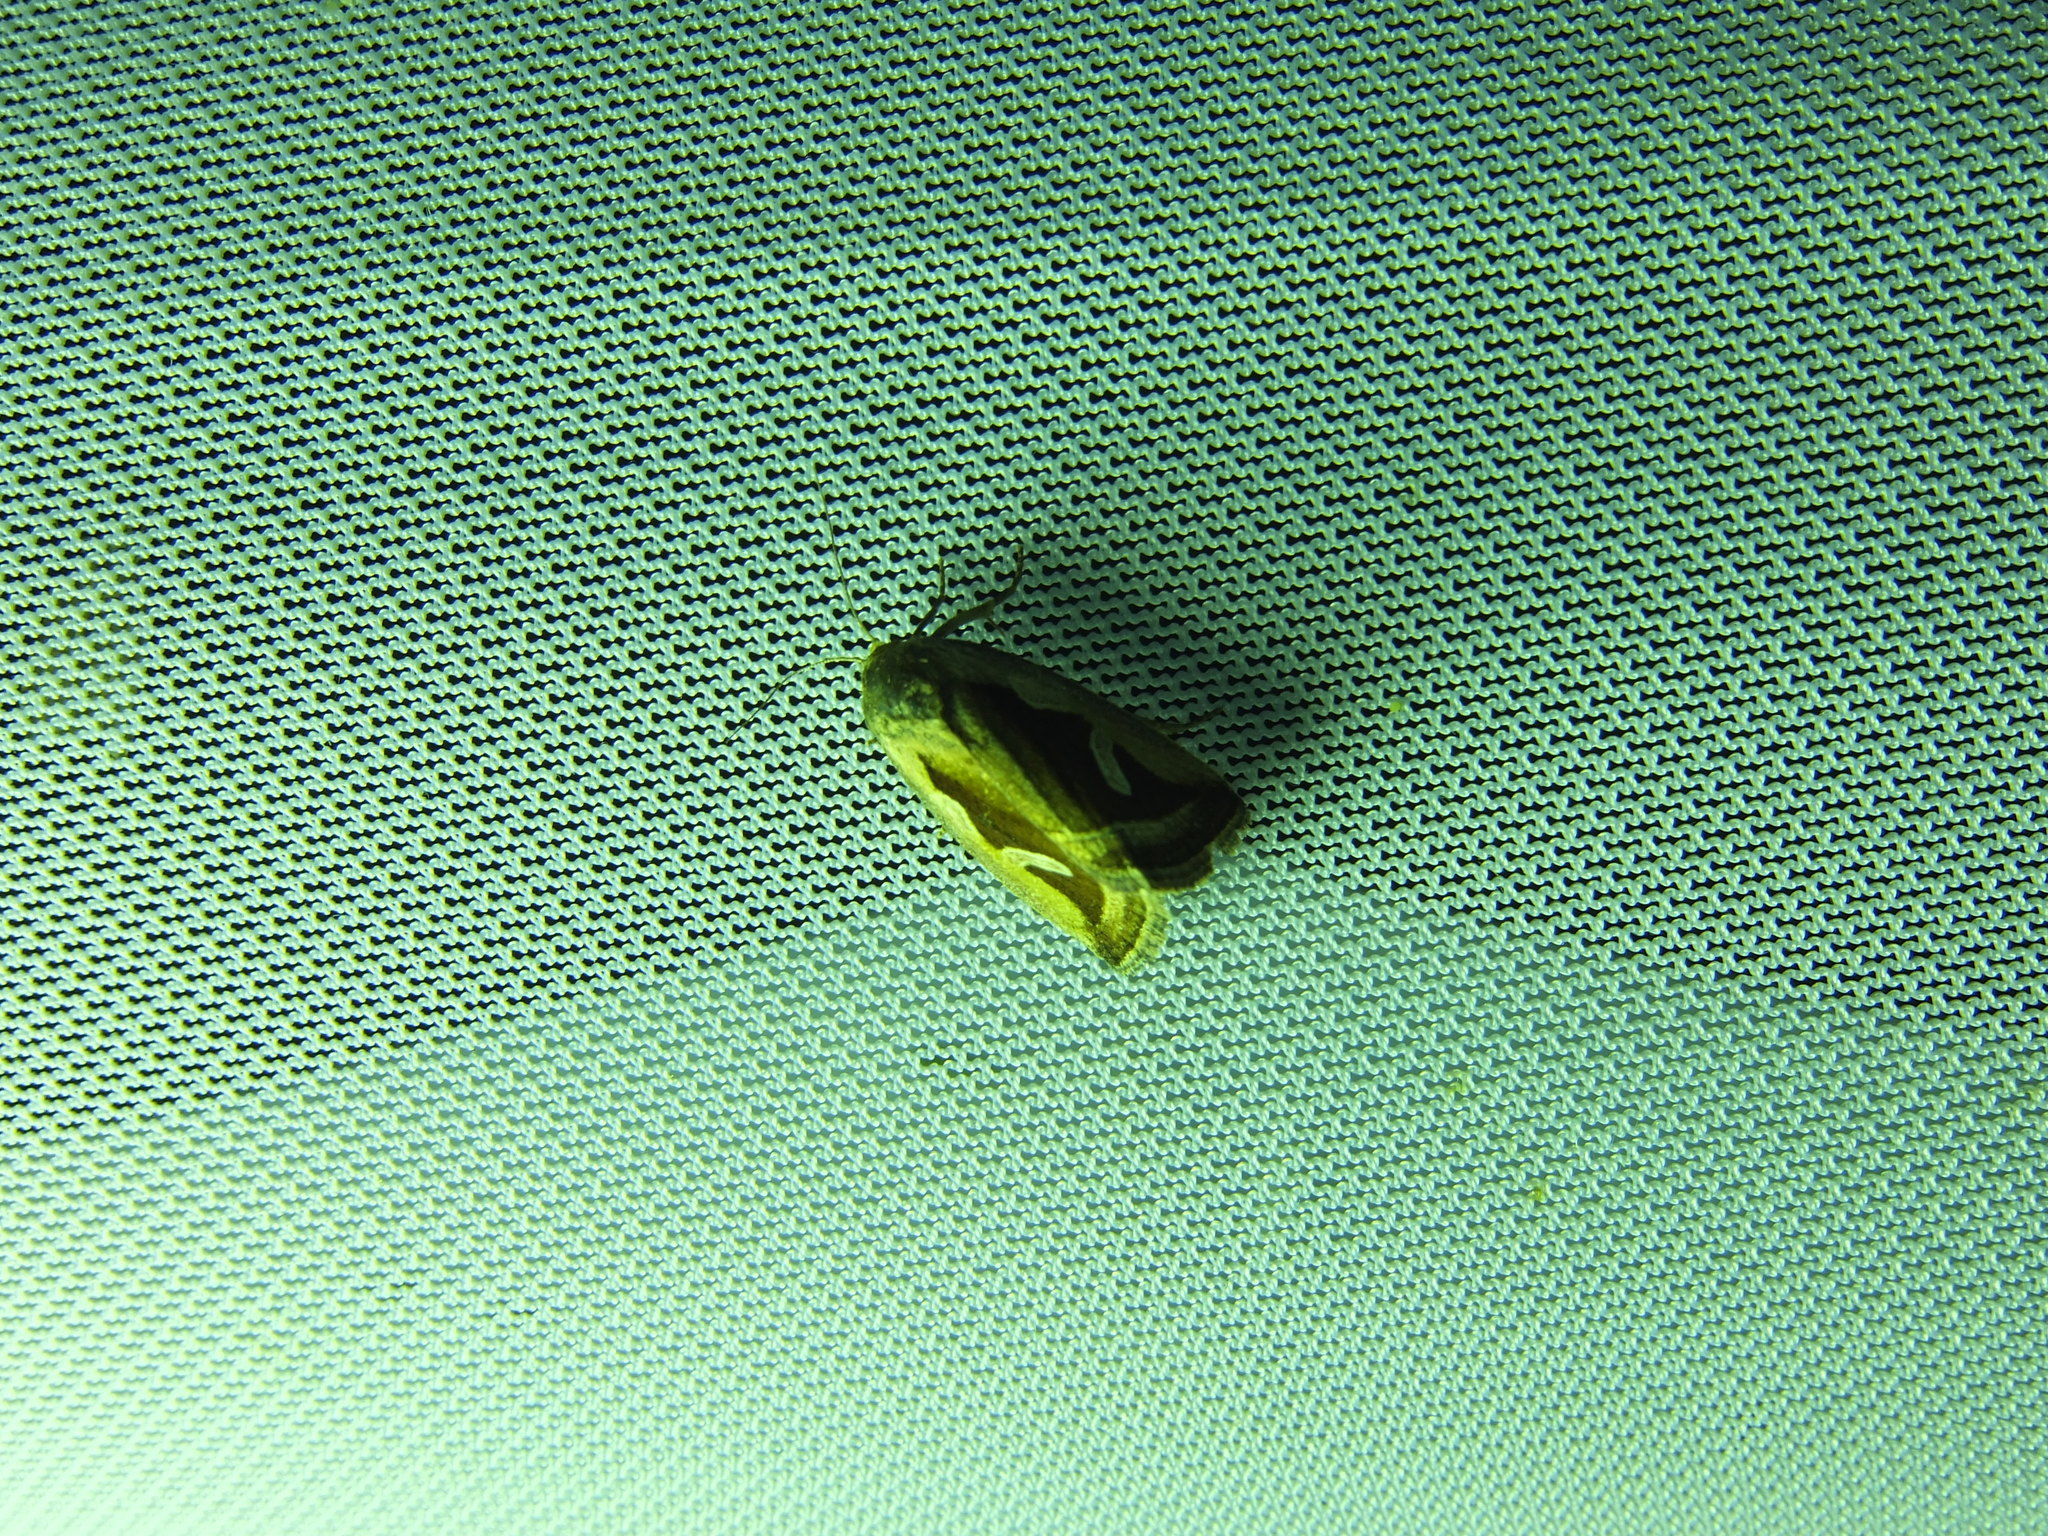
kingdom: Animalia
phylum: Arthropoda
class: Insecta
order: Lepidoptera
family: Noctuidae
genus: Deltote
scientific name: Deltote uncula
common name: Silver hook
